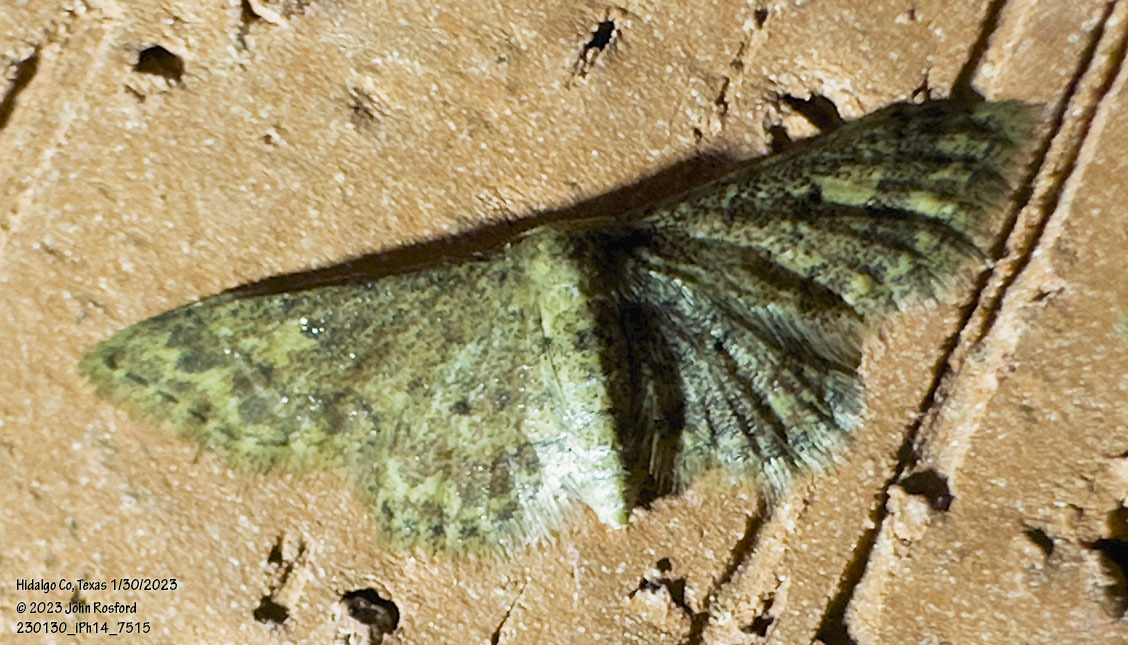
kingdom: Animalia
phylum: Arthropoda
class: Insecta
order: Lepidoptera
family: Geometridae
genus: Idaea
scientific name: Idaea celtima
